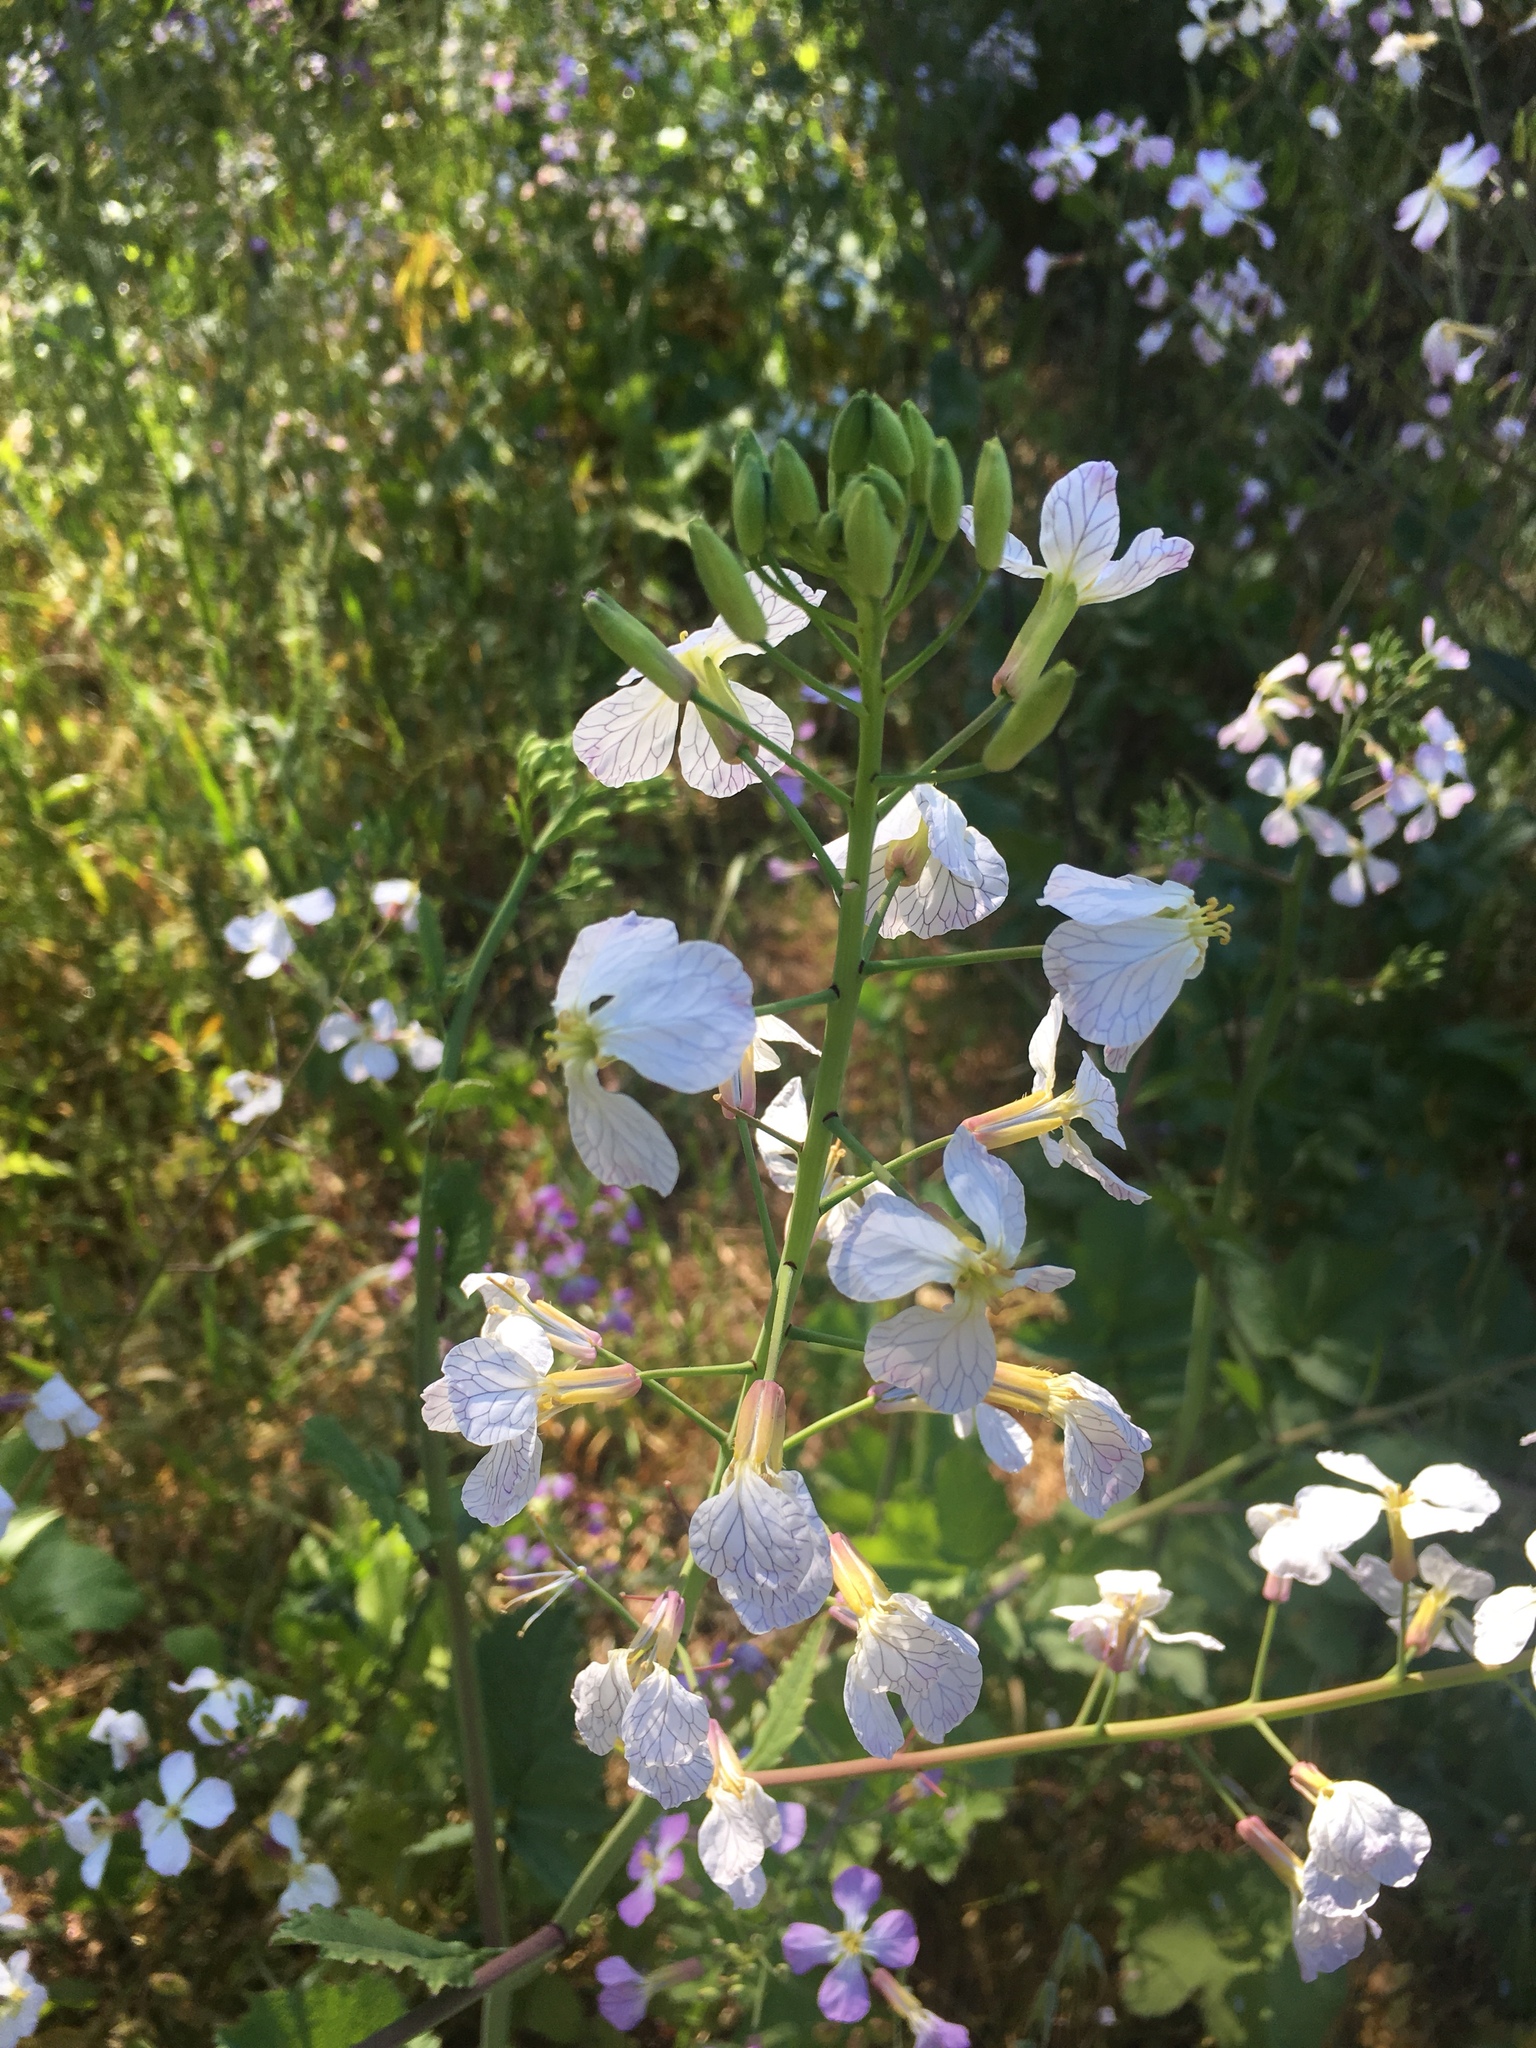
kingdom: Plantae
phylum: Tracheophyta
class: Magnoliopsida
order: Brassicales
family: Brassicaceae
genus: Raphanus
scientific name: Raphanus sativus
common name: Cultivated radish
